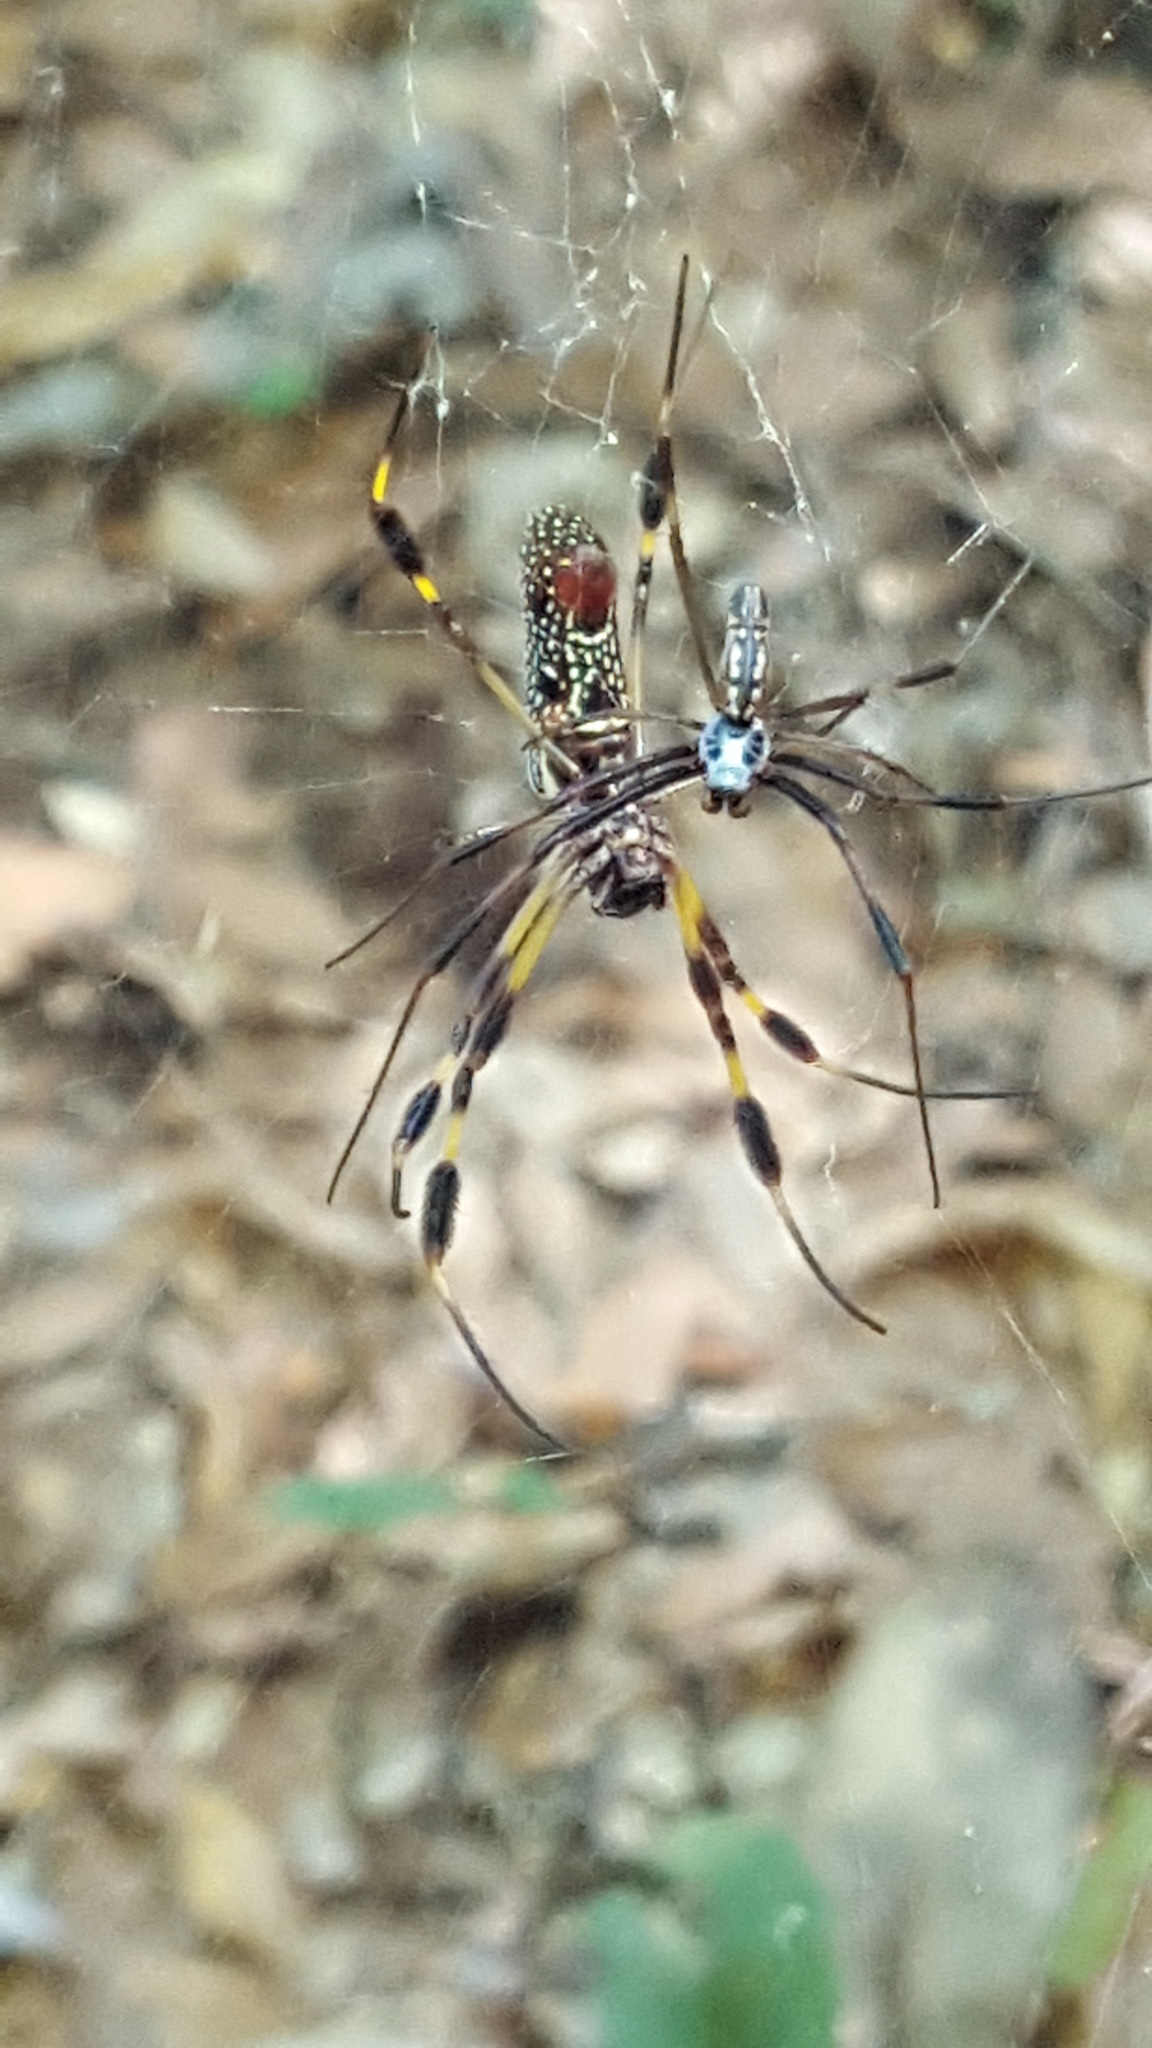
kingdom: Animalia
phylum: Arthropoda
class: Arachnida
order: Araneae
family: Araneidae
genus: Trichonephila
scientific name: Trichonephila clavipes
